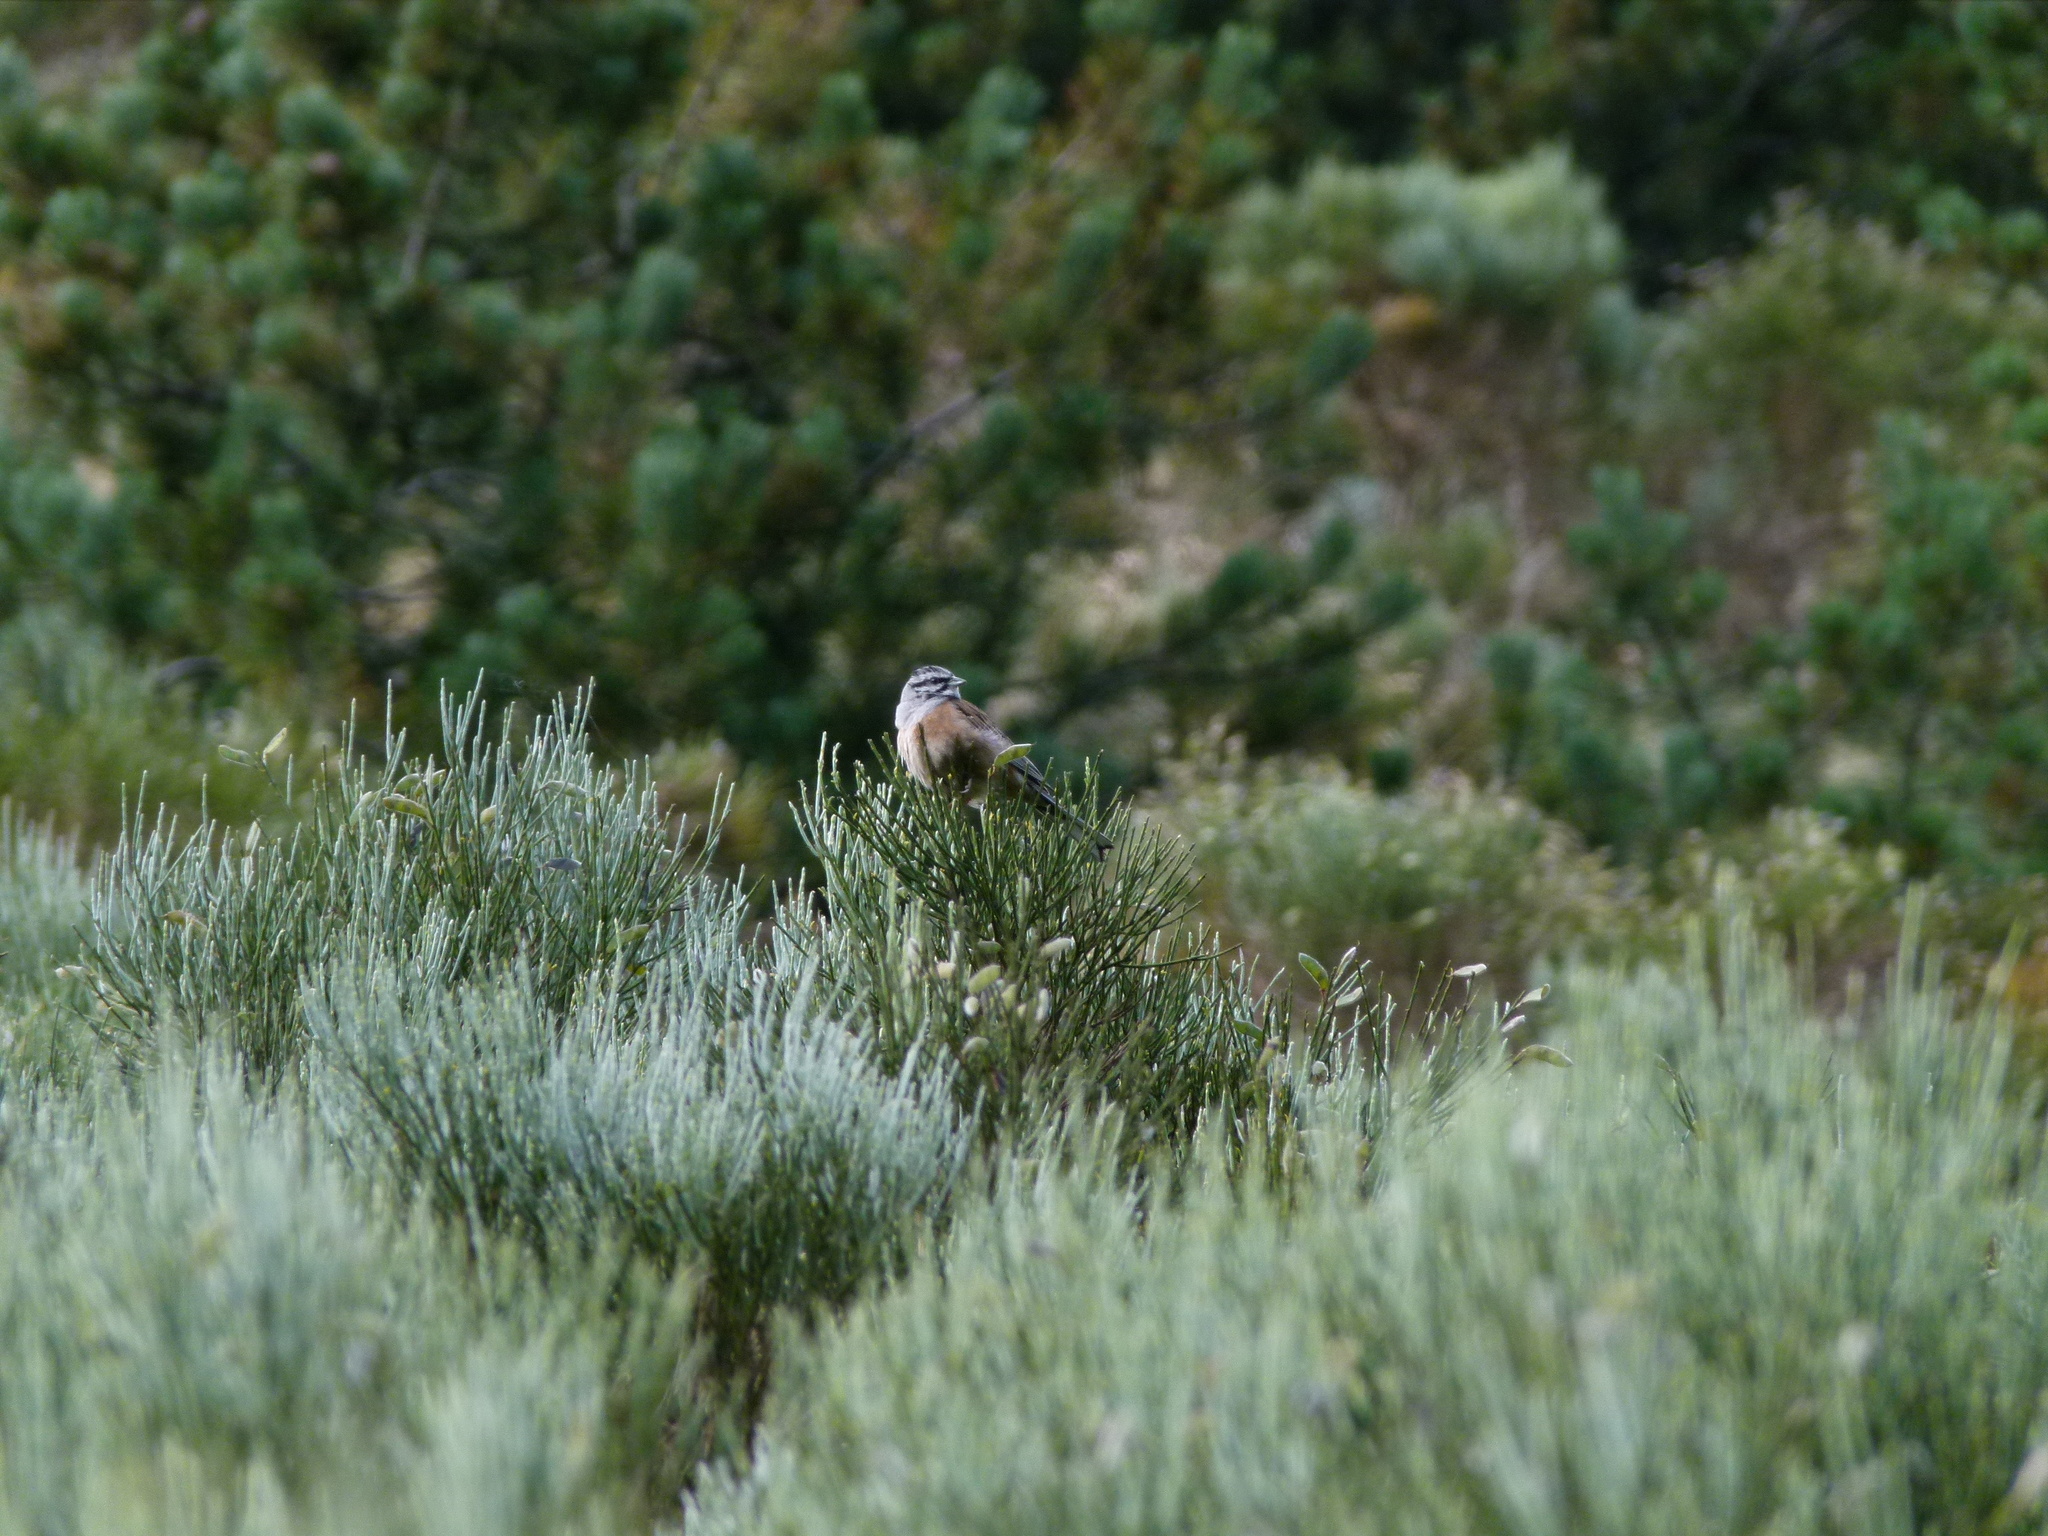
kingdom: Animalia
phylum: Chordata
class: Aves
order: Passeriformes
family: Emberizidae
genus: Emberiza
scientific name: Emberiza cia
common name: Rock bunting
